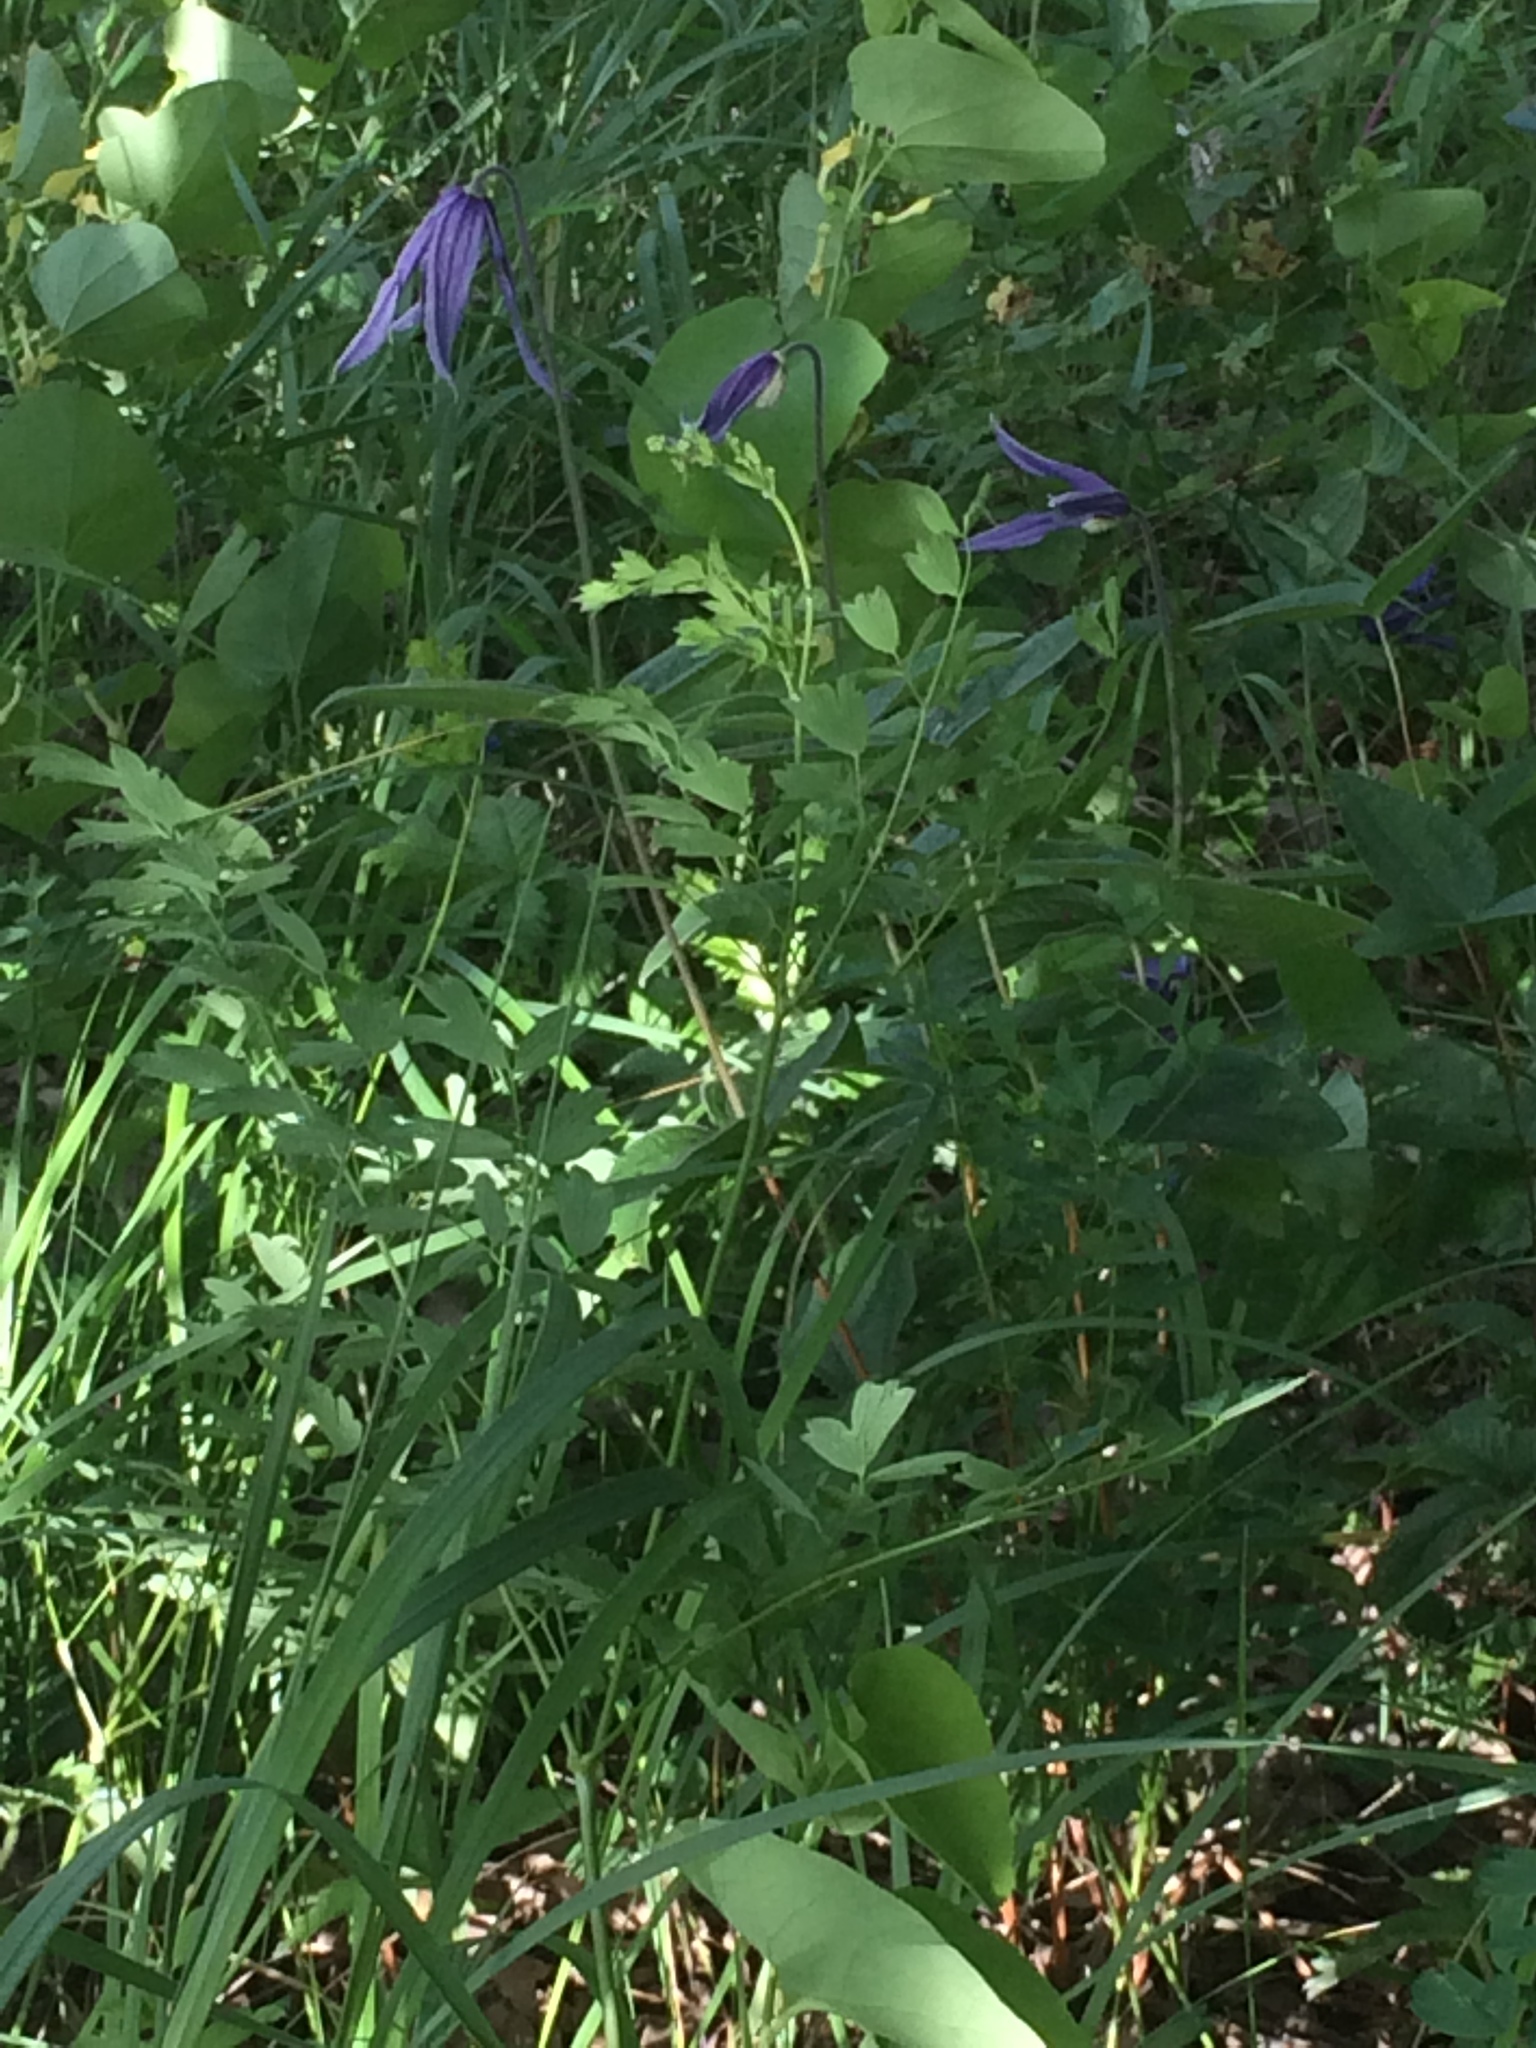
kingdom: Plantae
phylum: Tracheophyta
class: Magnoliopsida
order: Ranunculales
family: Ranunculaceae
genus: Clematis
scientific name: Clematis integrifolia
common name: Solitary clematis
